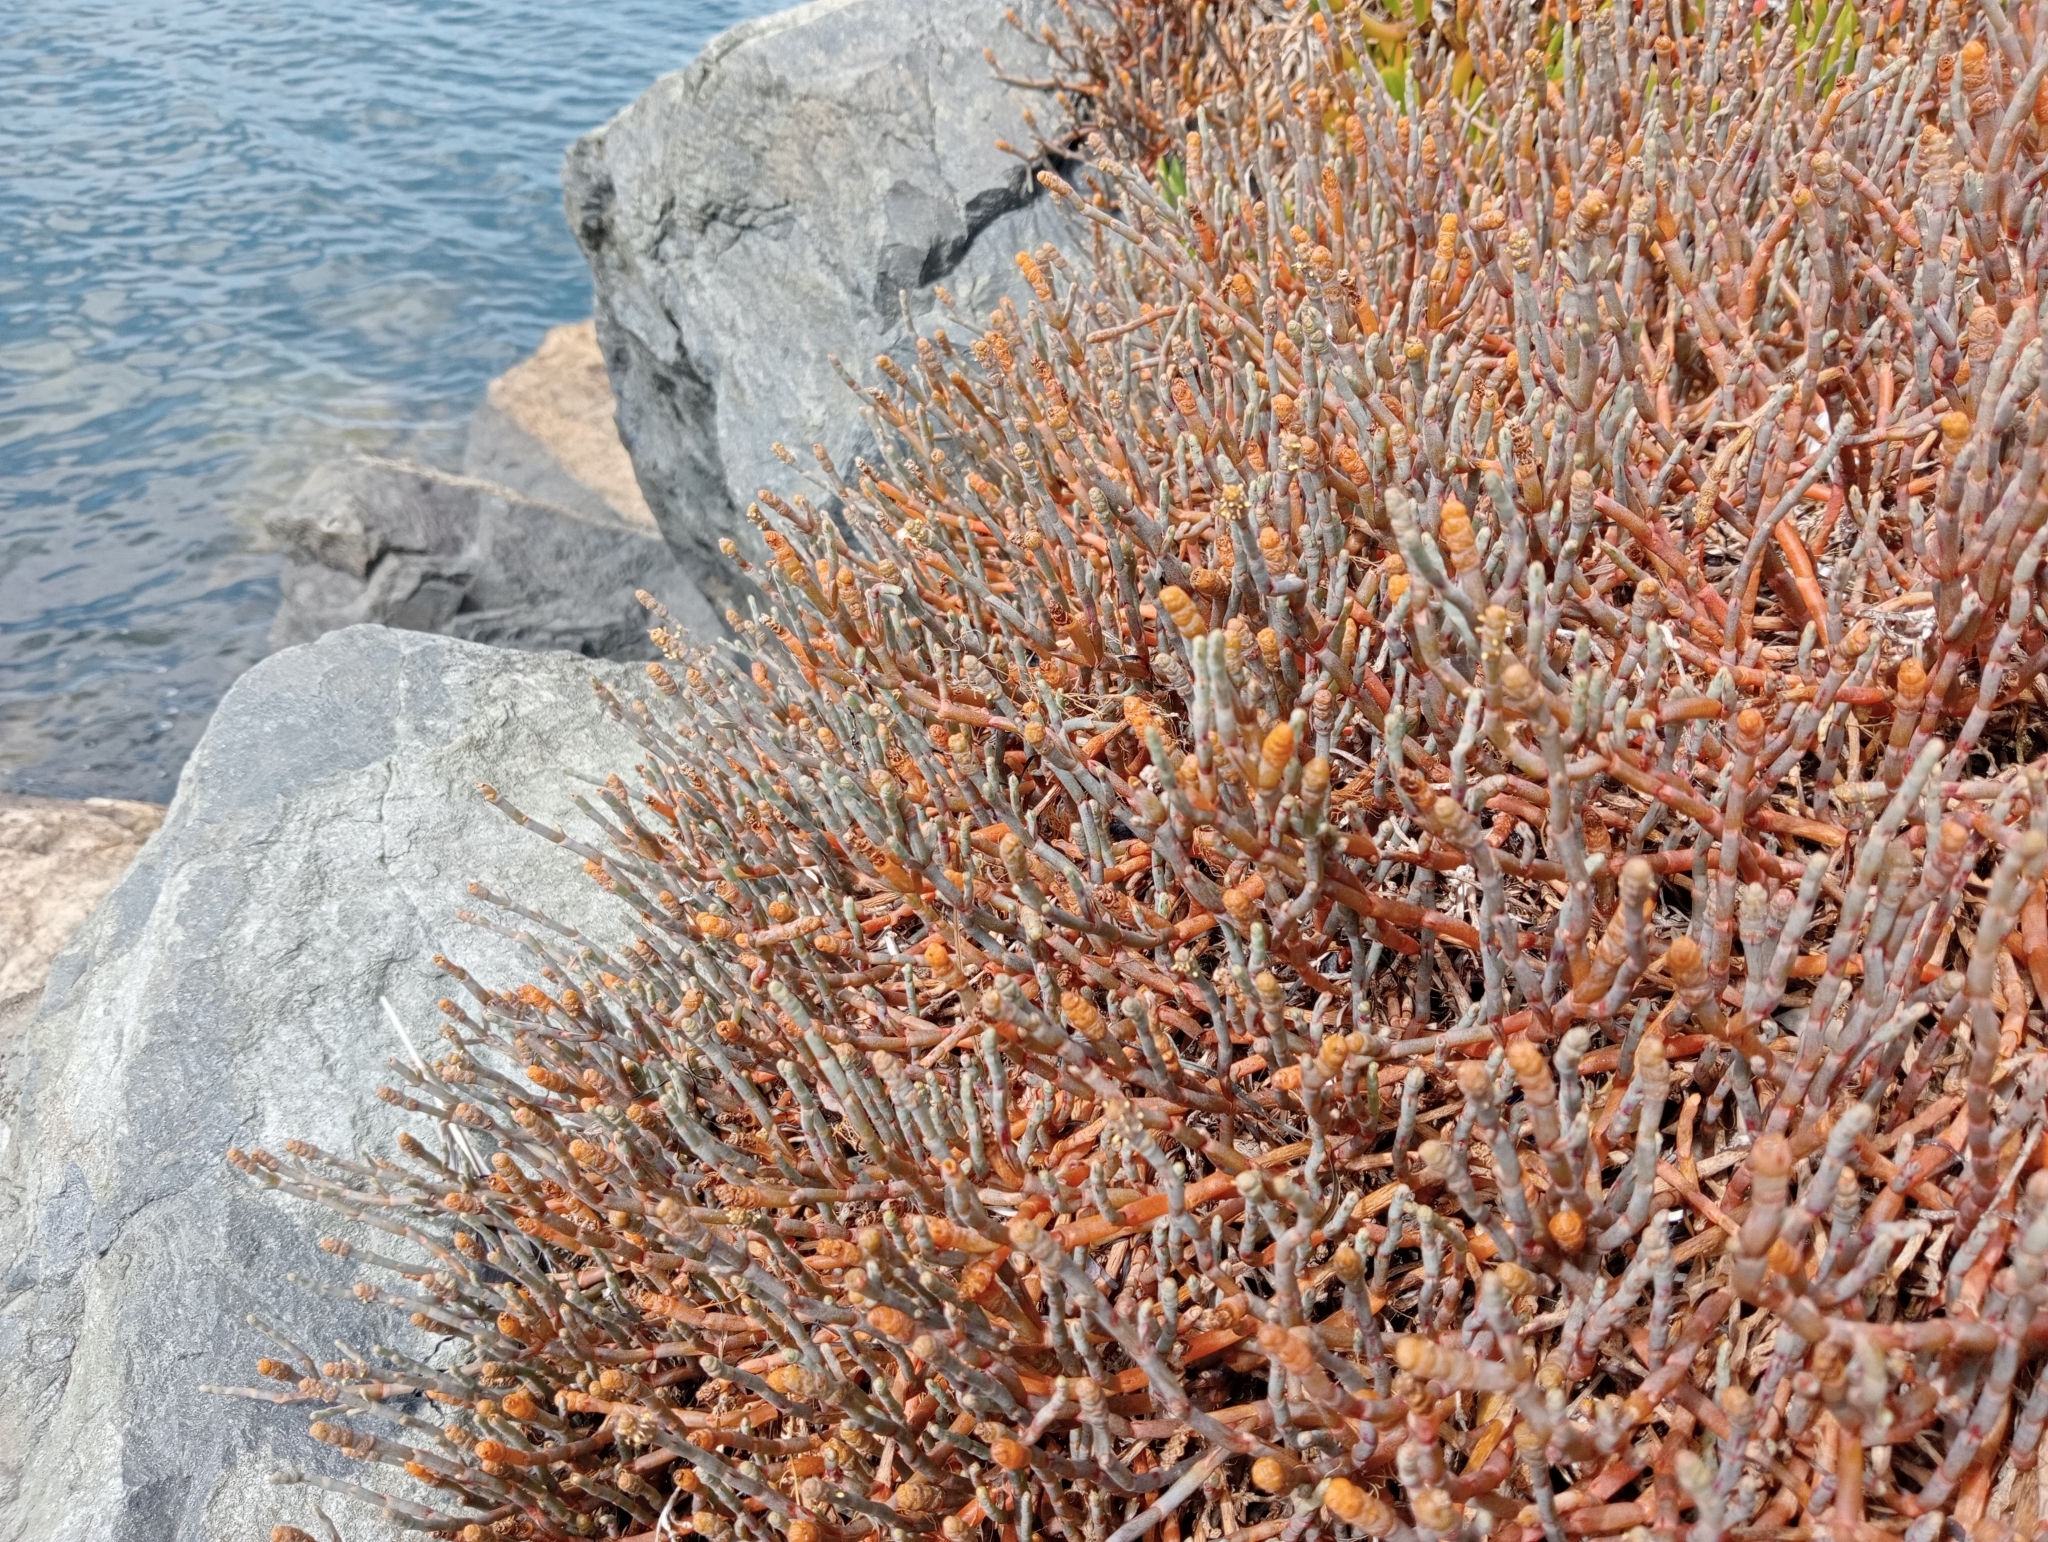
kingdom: Plantae
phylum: Tracheophyta
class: Magnoliopsida
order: Caryophyllales
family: Amaranthaceae
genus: Salicornia
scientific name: Salicornia quinqueflora
